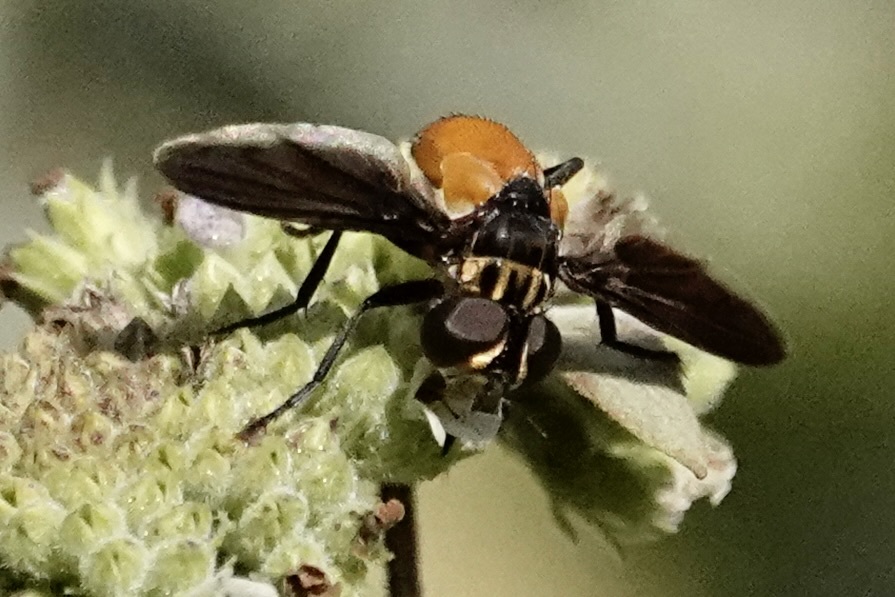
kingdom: Animalia
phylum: Arthropoda
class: Insecta
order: Diptera
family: Tachinidae
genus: Trichopoda
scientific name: Trichopoda pennipes
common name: Tachinid fly
